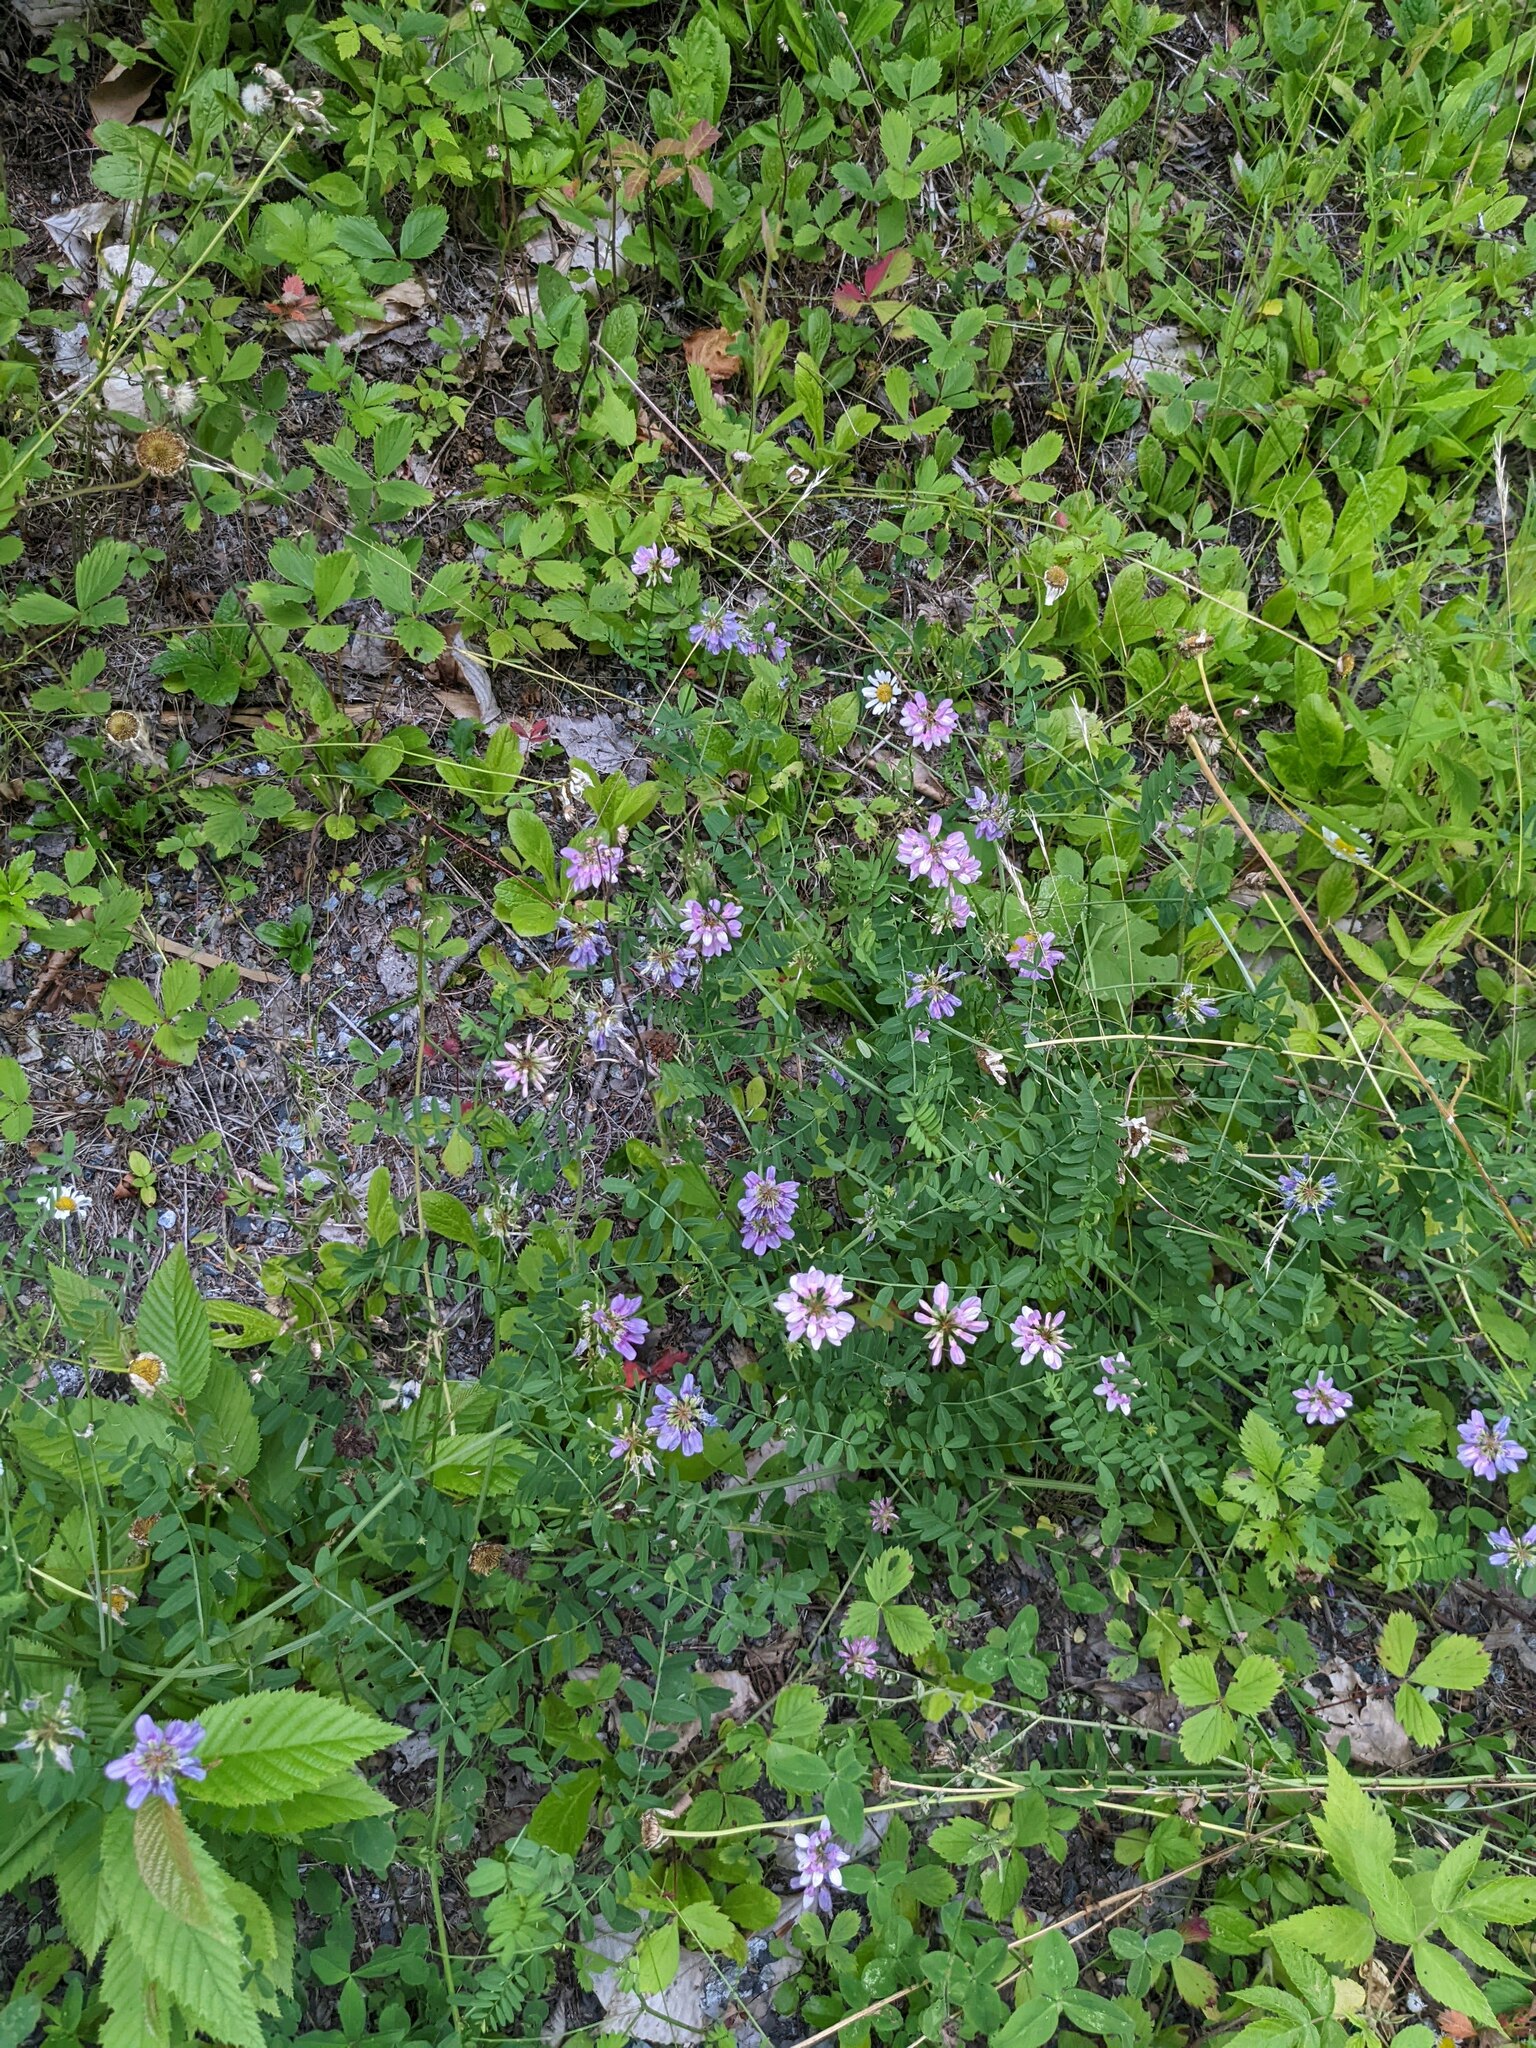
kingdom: Plantae
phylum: Tracheophyta
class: Magnoliopsida
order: Fabales
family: Fabaceae
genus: Coronilla
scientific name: Coronilla varia
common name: Crownvetch
